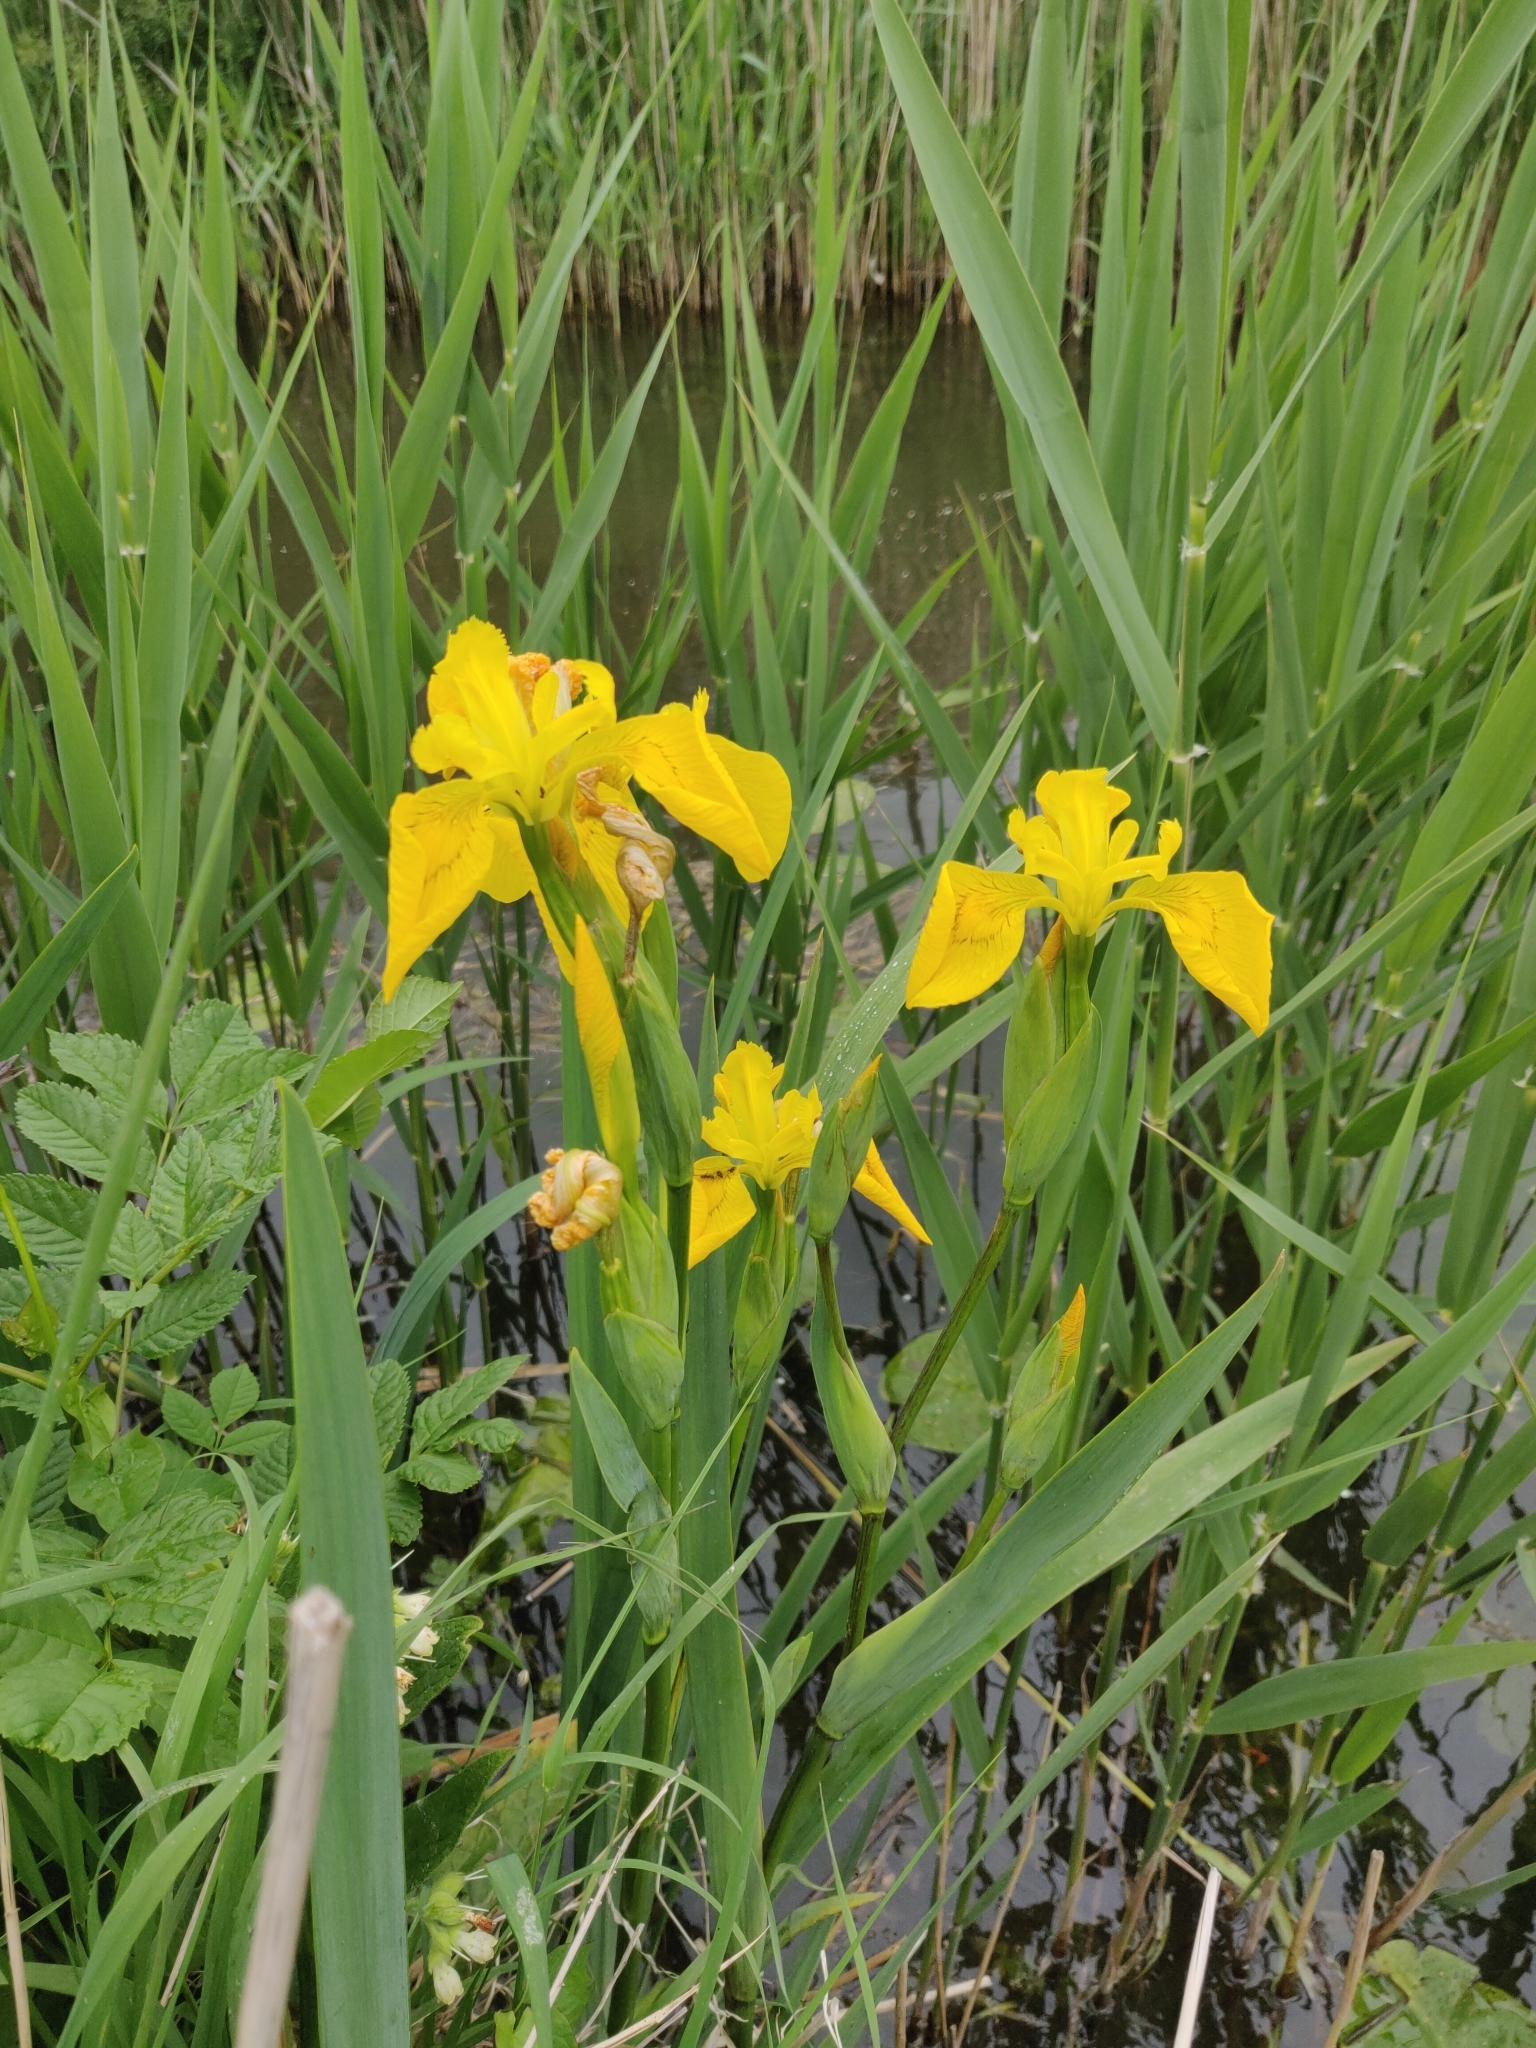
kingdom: Plantae
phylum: Tracheophyta
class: Liliopsida
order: Asparagales
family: Iridaceae
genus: Iris
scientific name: Iris pseudacorus
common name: Yellow flag
